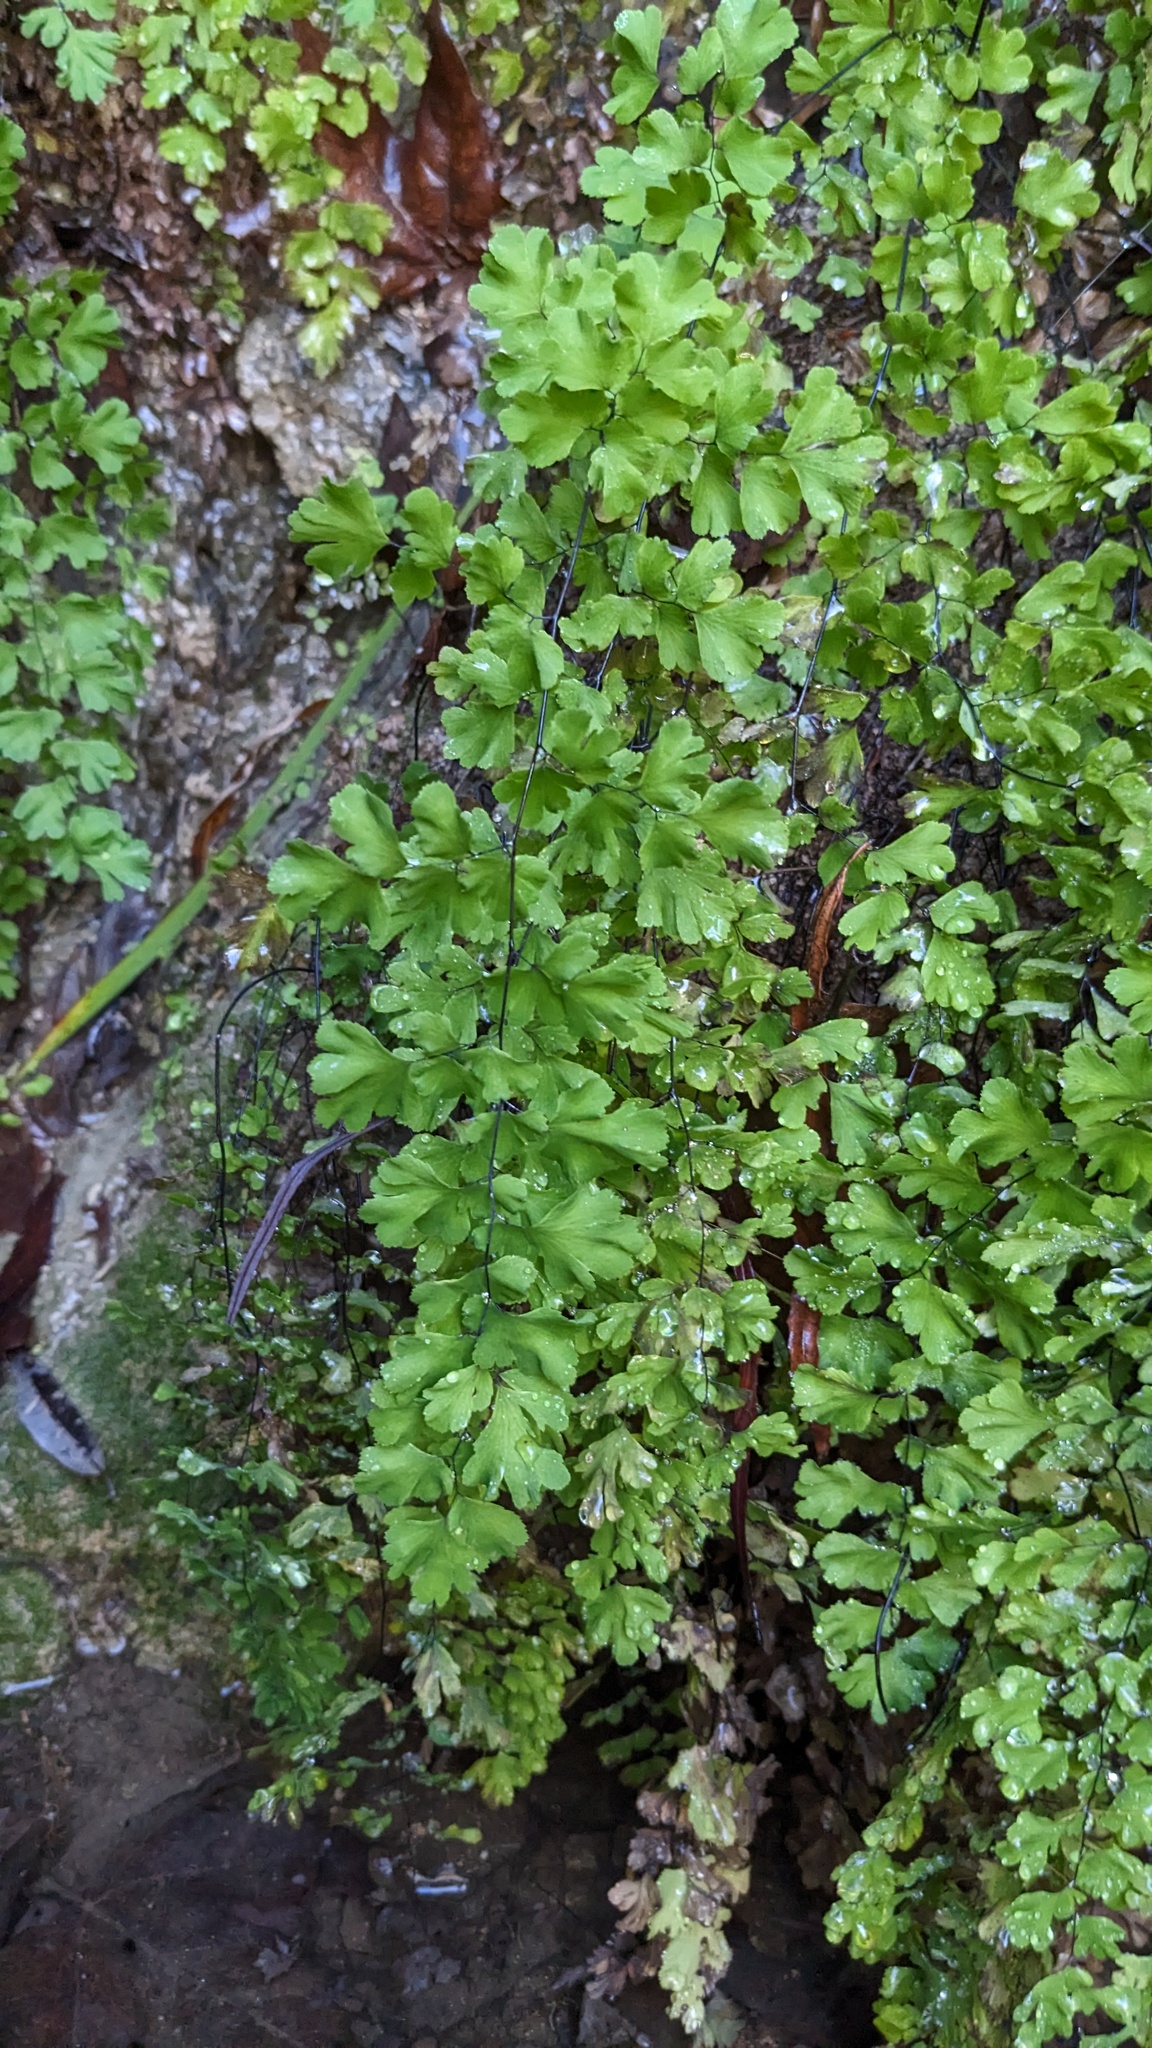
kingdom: Plantae
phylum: Tracheophyta
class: Polypodiopsida
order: Polypodiales
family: Pteridaceae
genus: Adiantum
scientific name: Adiantum capillus-veneris
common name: Maidenhair fern
